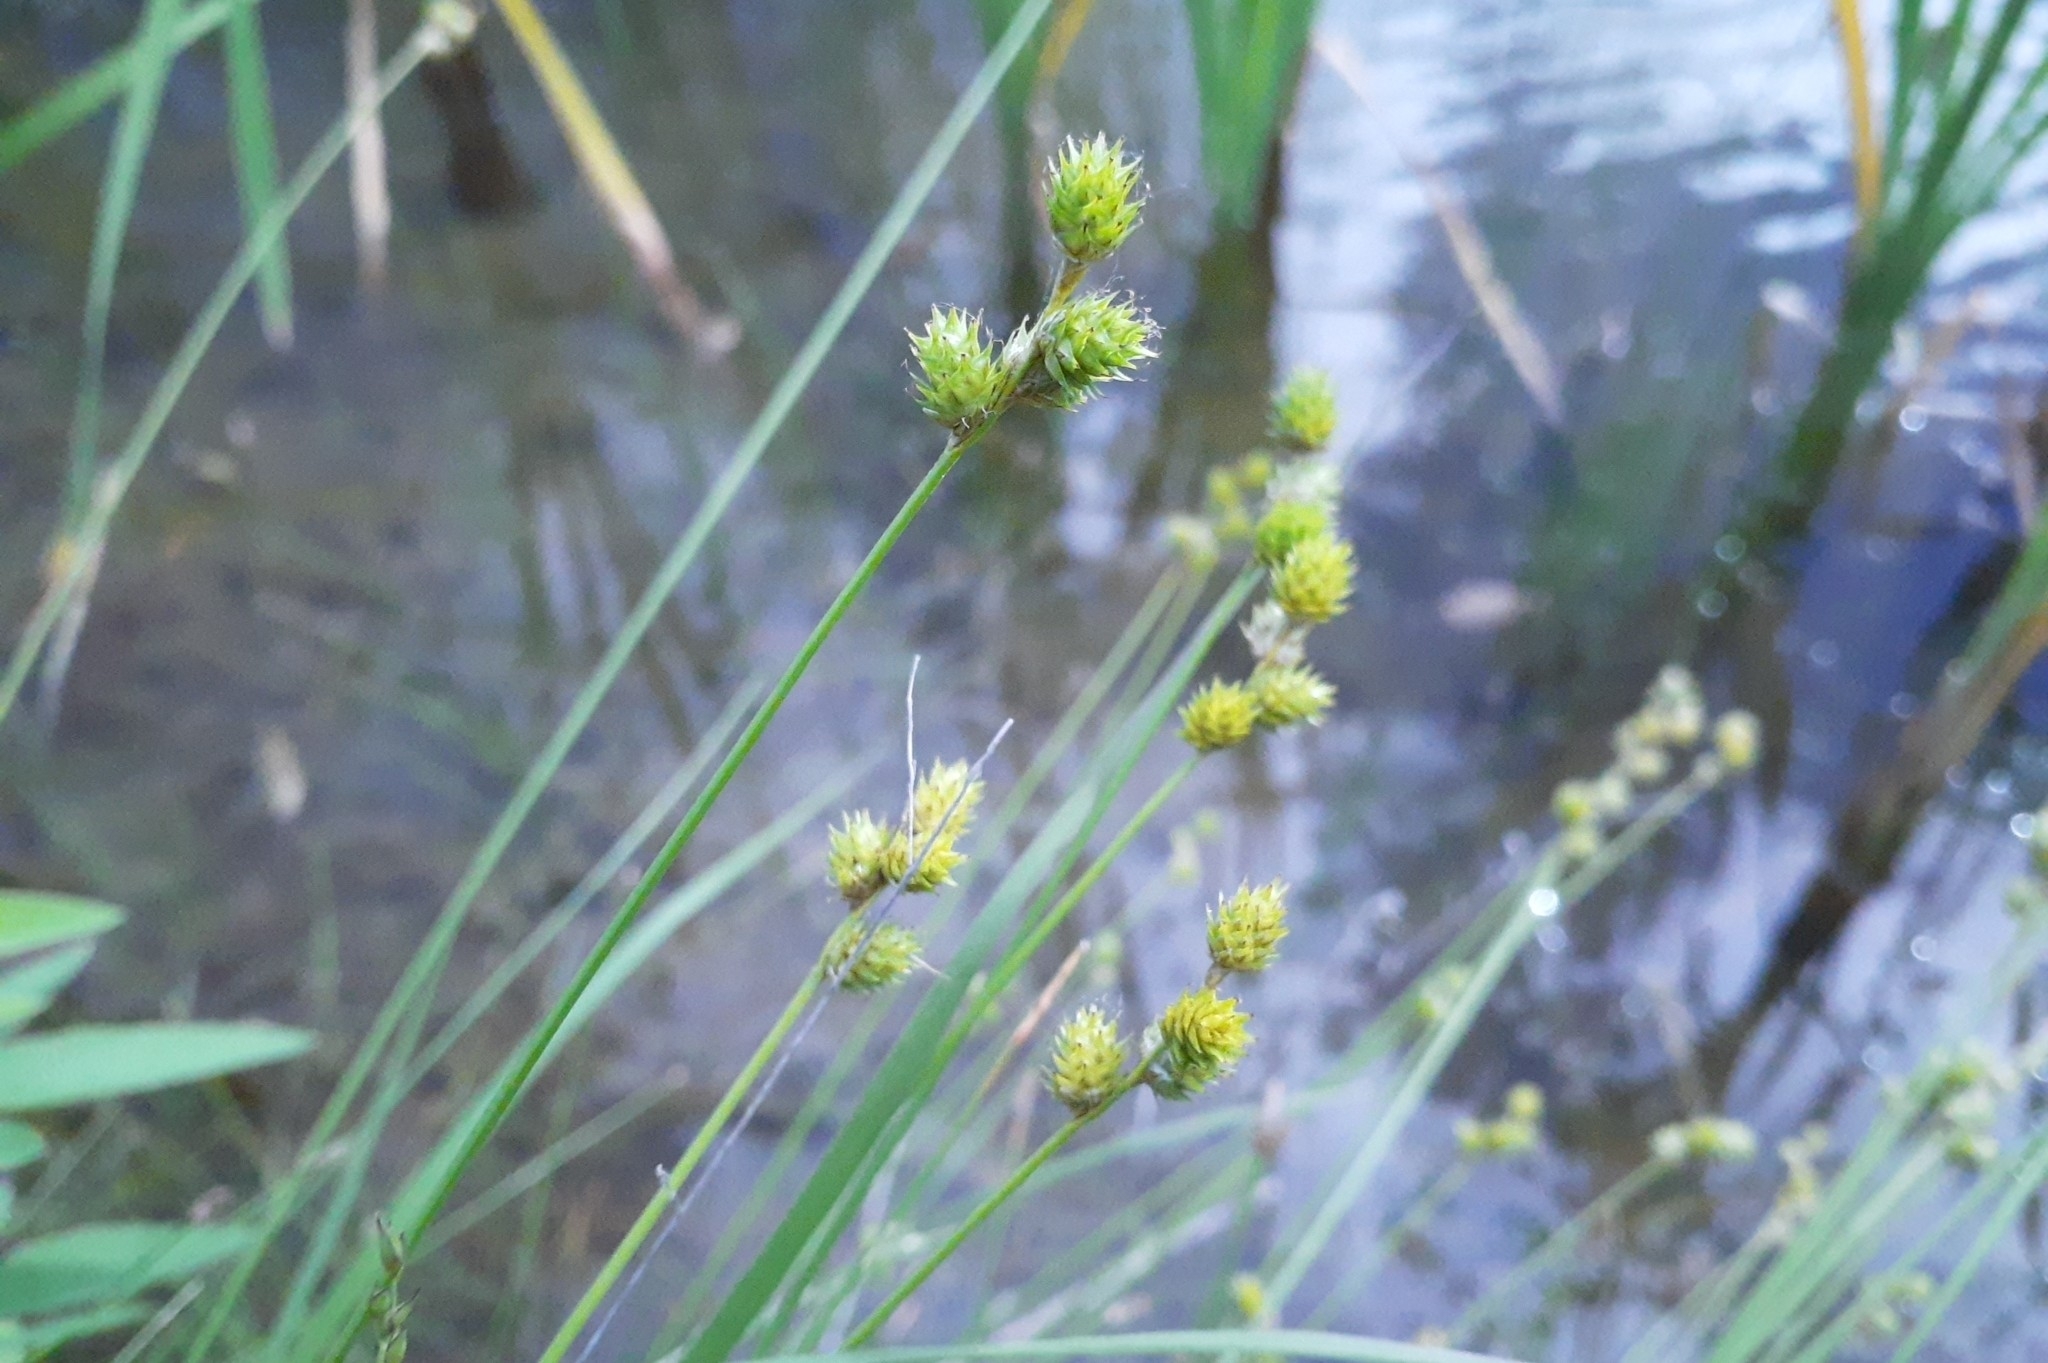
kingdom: Plantae
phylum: Tracheophyta
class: Liliopsida
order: Poales
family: Cyperaceae
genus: Carex
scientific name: Carex molesta
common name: Troublesome sedge
